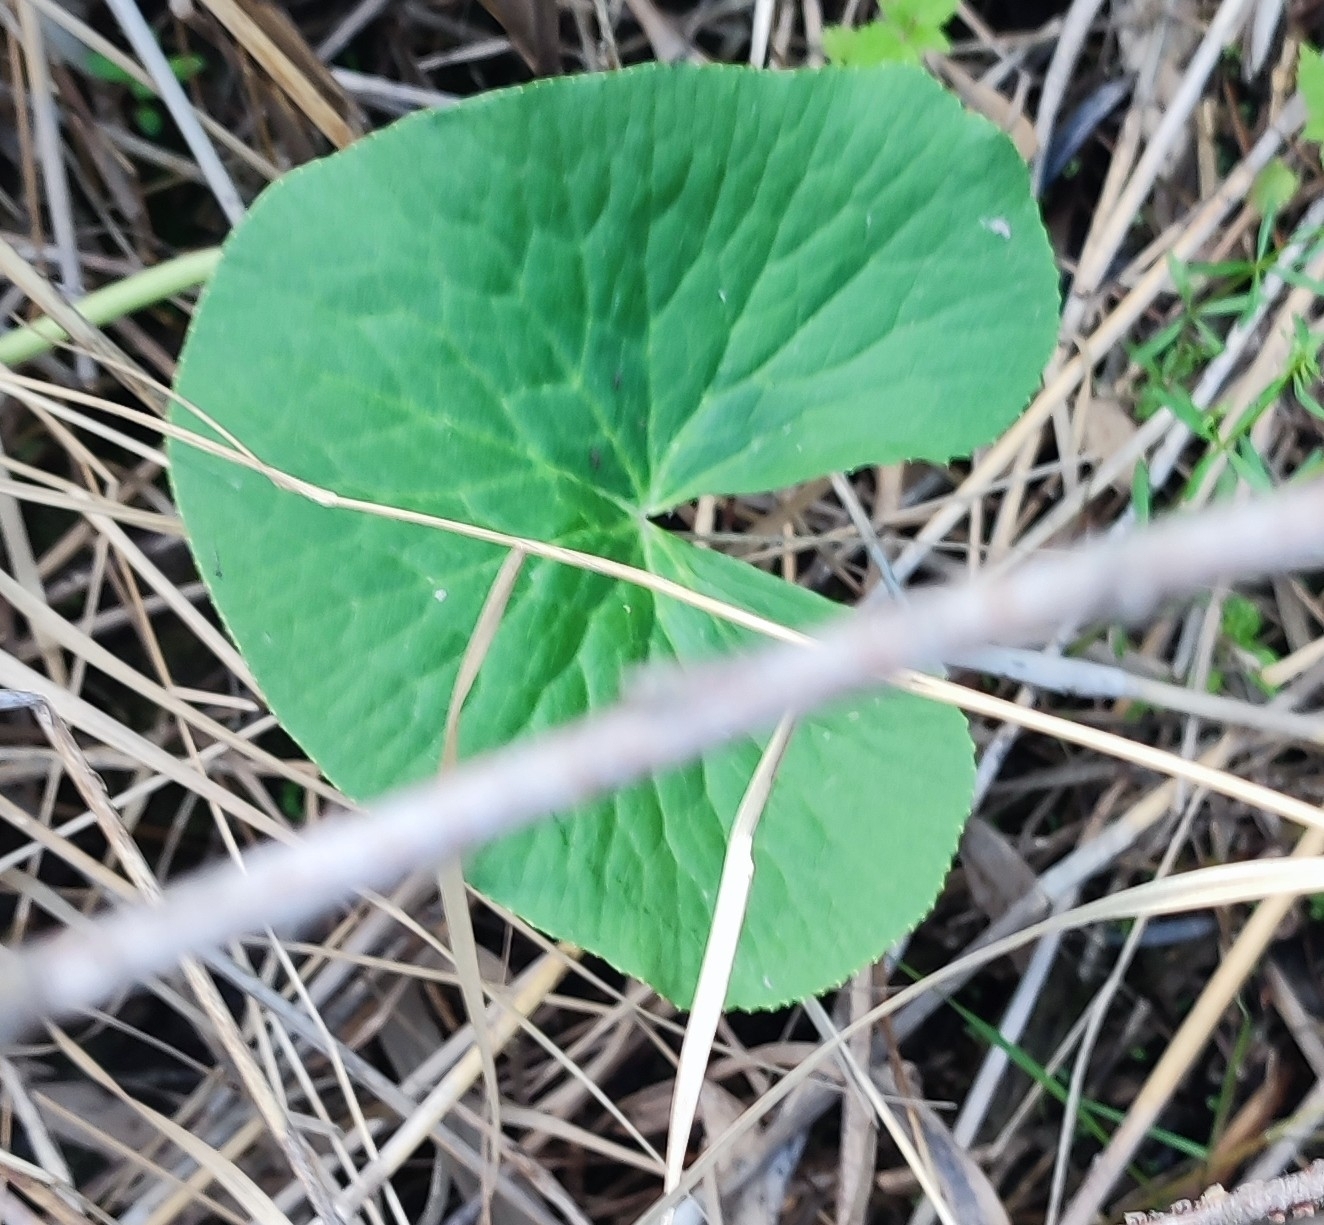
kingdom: Plantae
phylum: Tracheophyta
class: Magnoliopsida
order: Ranunculales
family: Ranunculaceae
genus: Caltha
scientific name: Caltha palustris
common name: Marsh marigold
